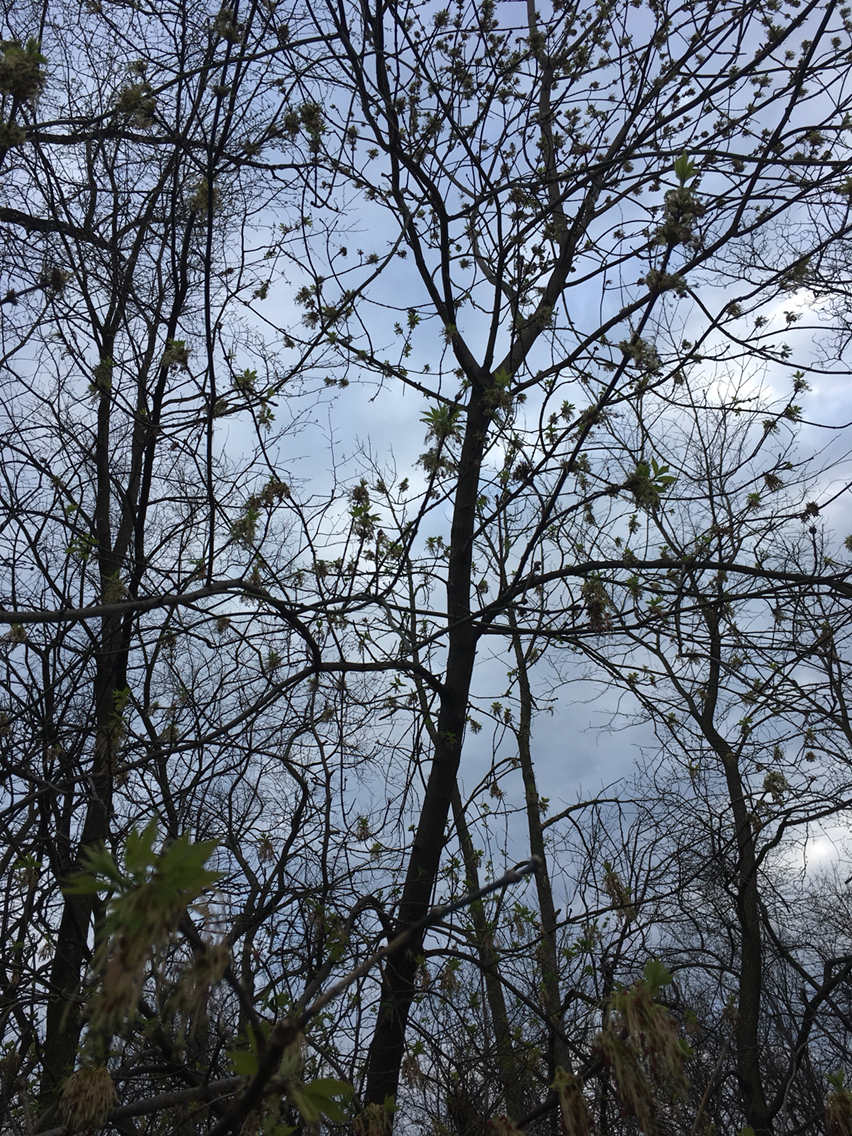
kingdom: Plantae
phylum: Tracheophyta
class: Magnoliopsida
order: Sapindales
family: Sapindaceae
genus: Acer
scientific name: Acer negundo
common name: Ashleaf maple
